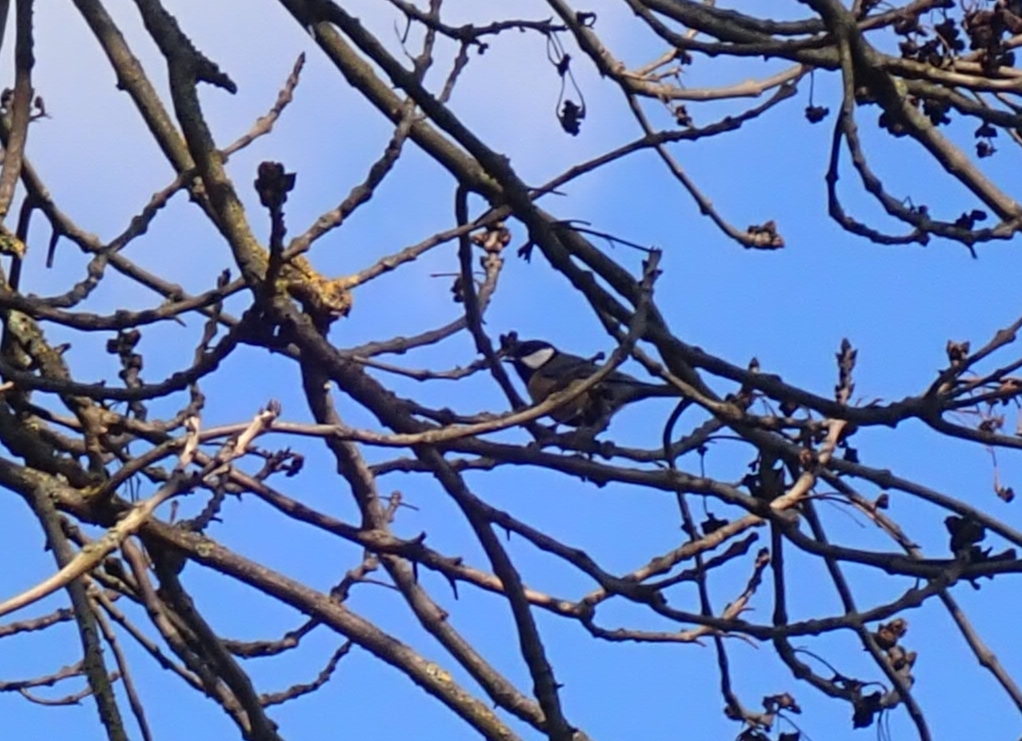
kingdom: Animalia
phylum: Chordata
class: Aves
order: Passeriformes
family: Paridae
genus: Parus
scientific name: Parus major
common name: Great tit
